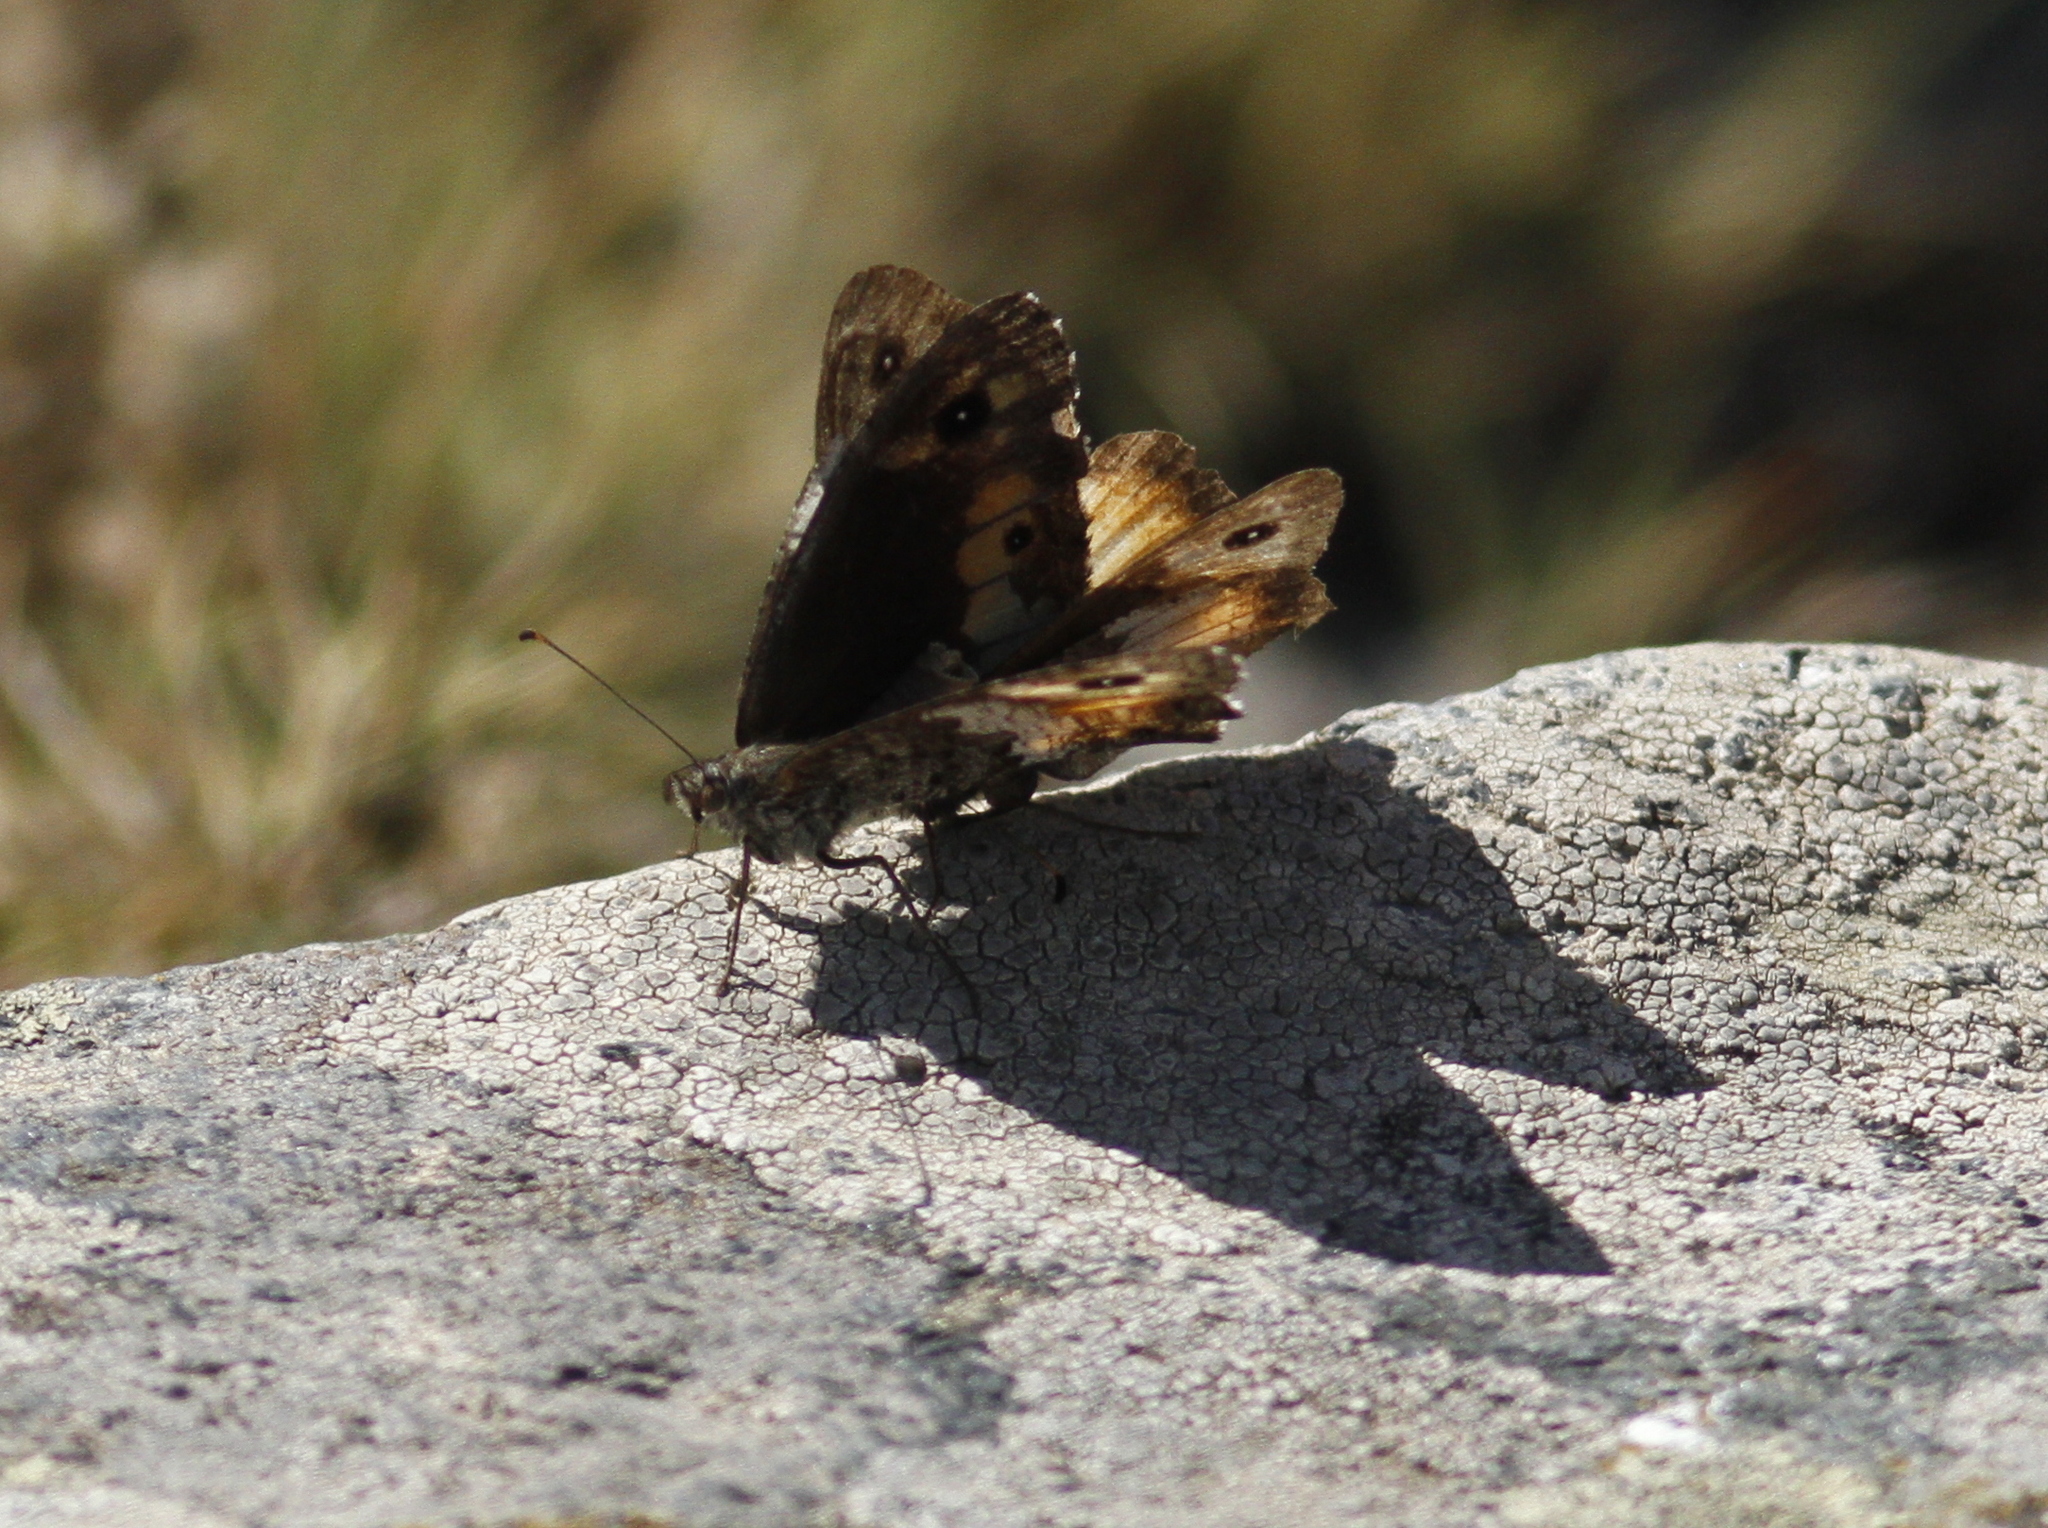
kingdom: Animalia
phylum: Arthropoda
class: Insecta
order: Lepidoptera
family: Nymphalidae
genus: Hipparchia
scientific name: Hipparchia neomiris
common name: Corsican grayling
